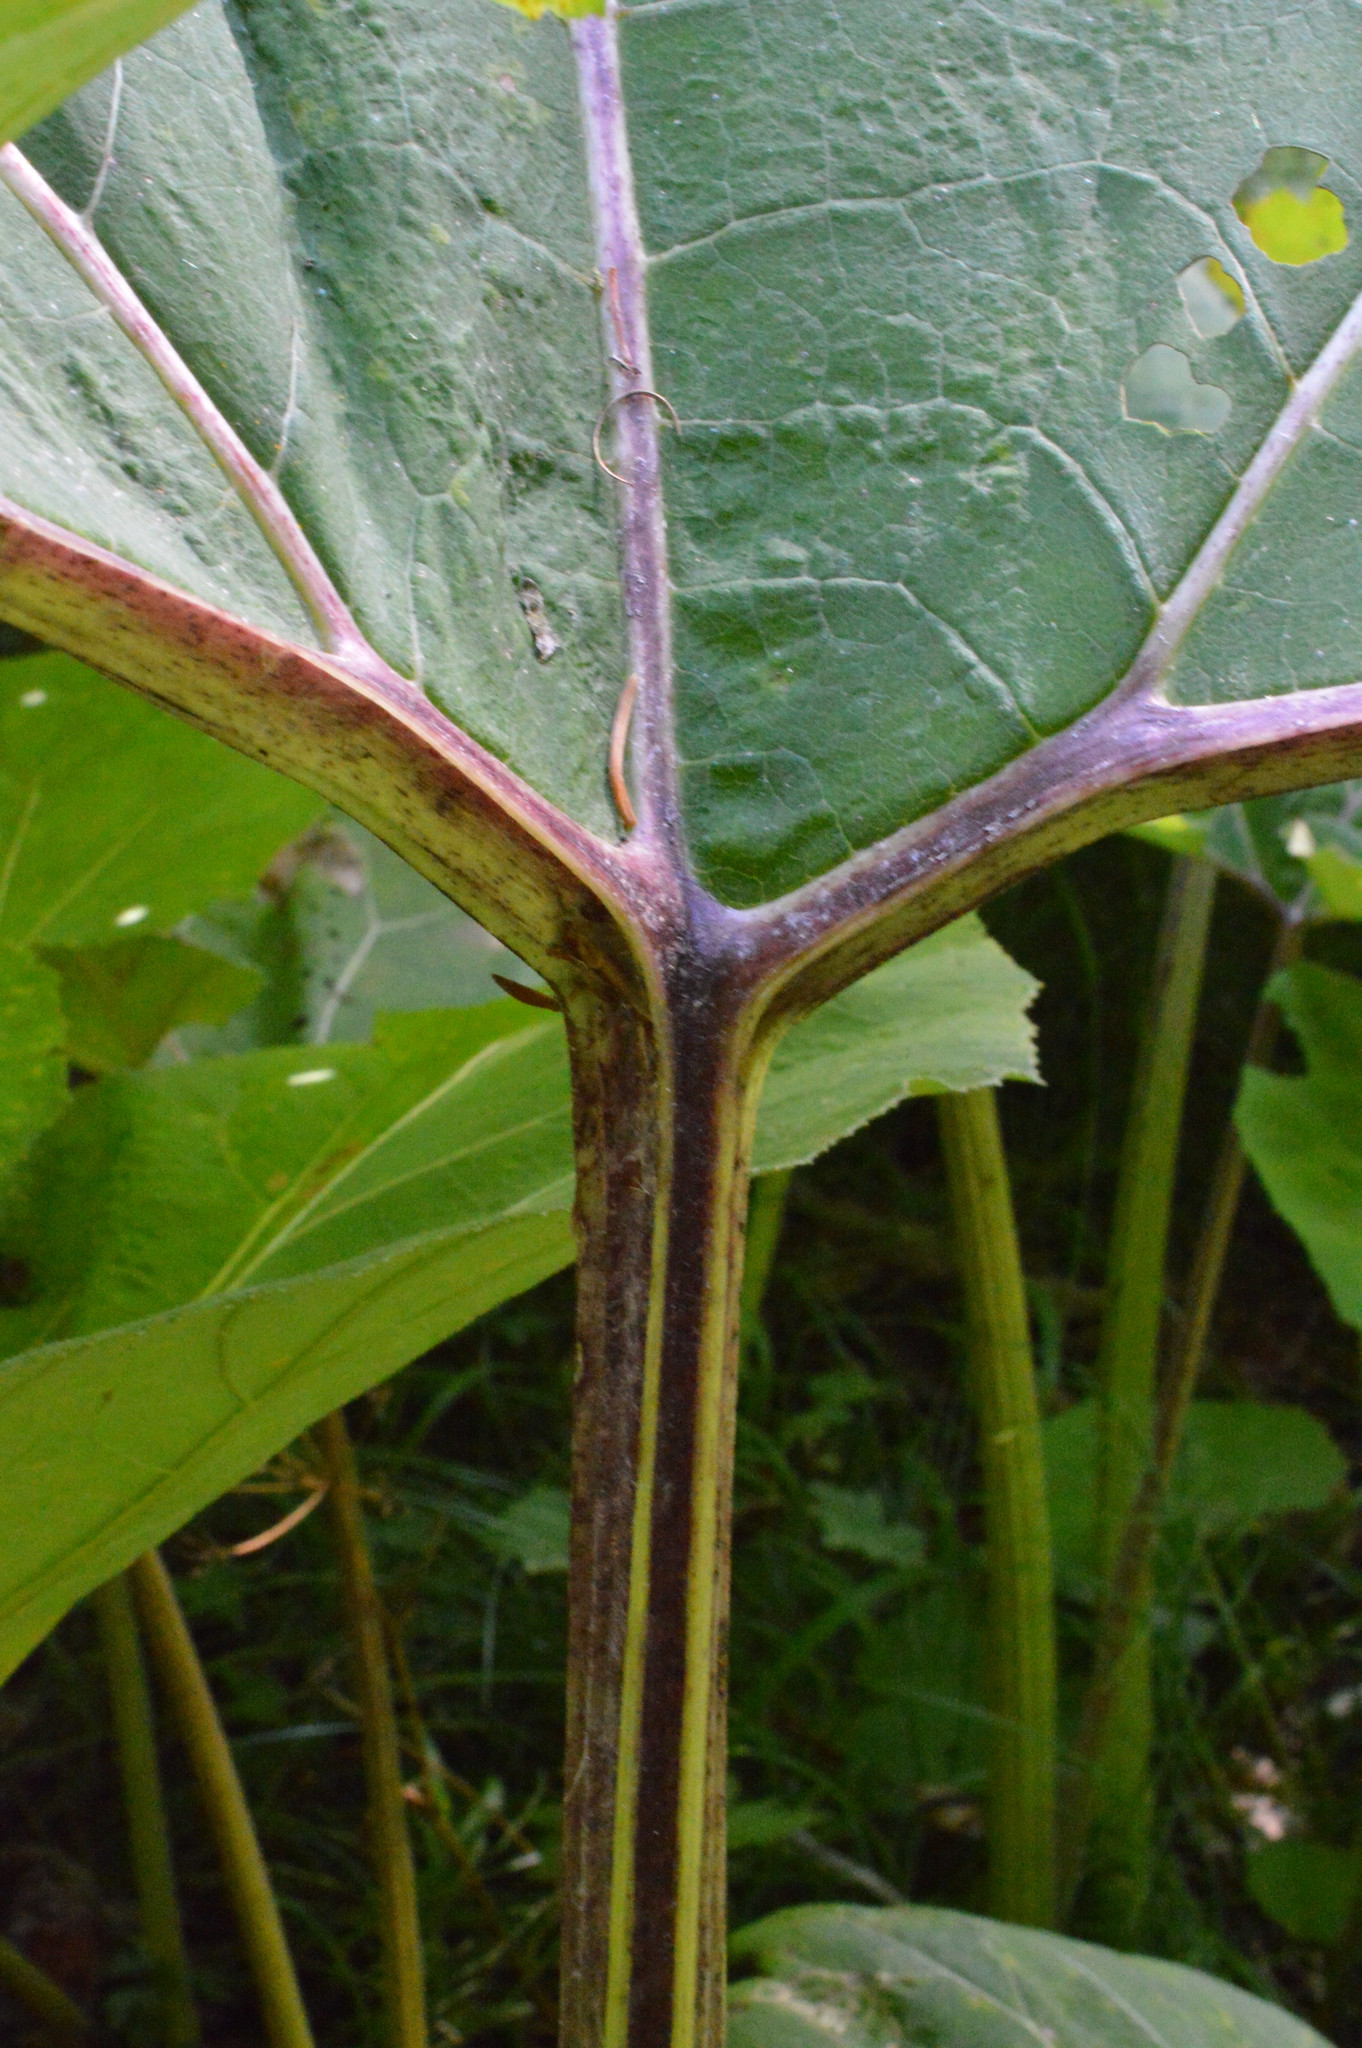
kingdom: Plantae
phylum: Tracheophyta
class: Magnoliopsida
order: Asterales
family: Asteraceae
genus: Petasites
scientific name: Petasites hybridus
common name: Butterbur
